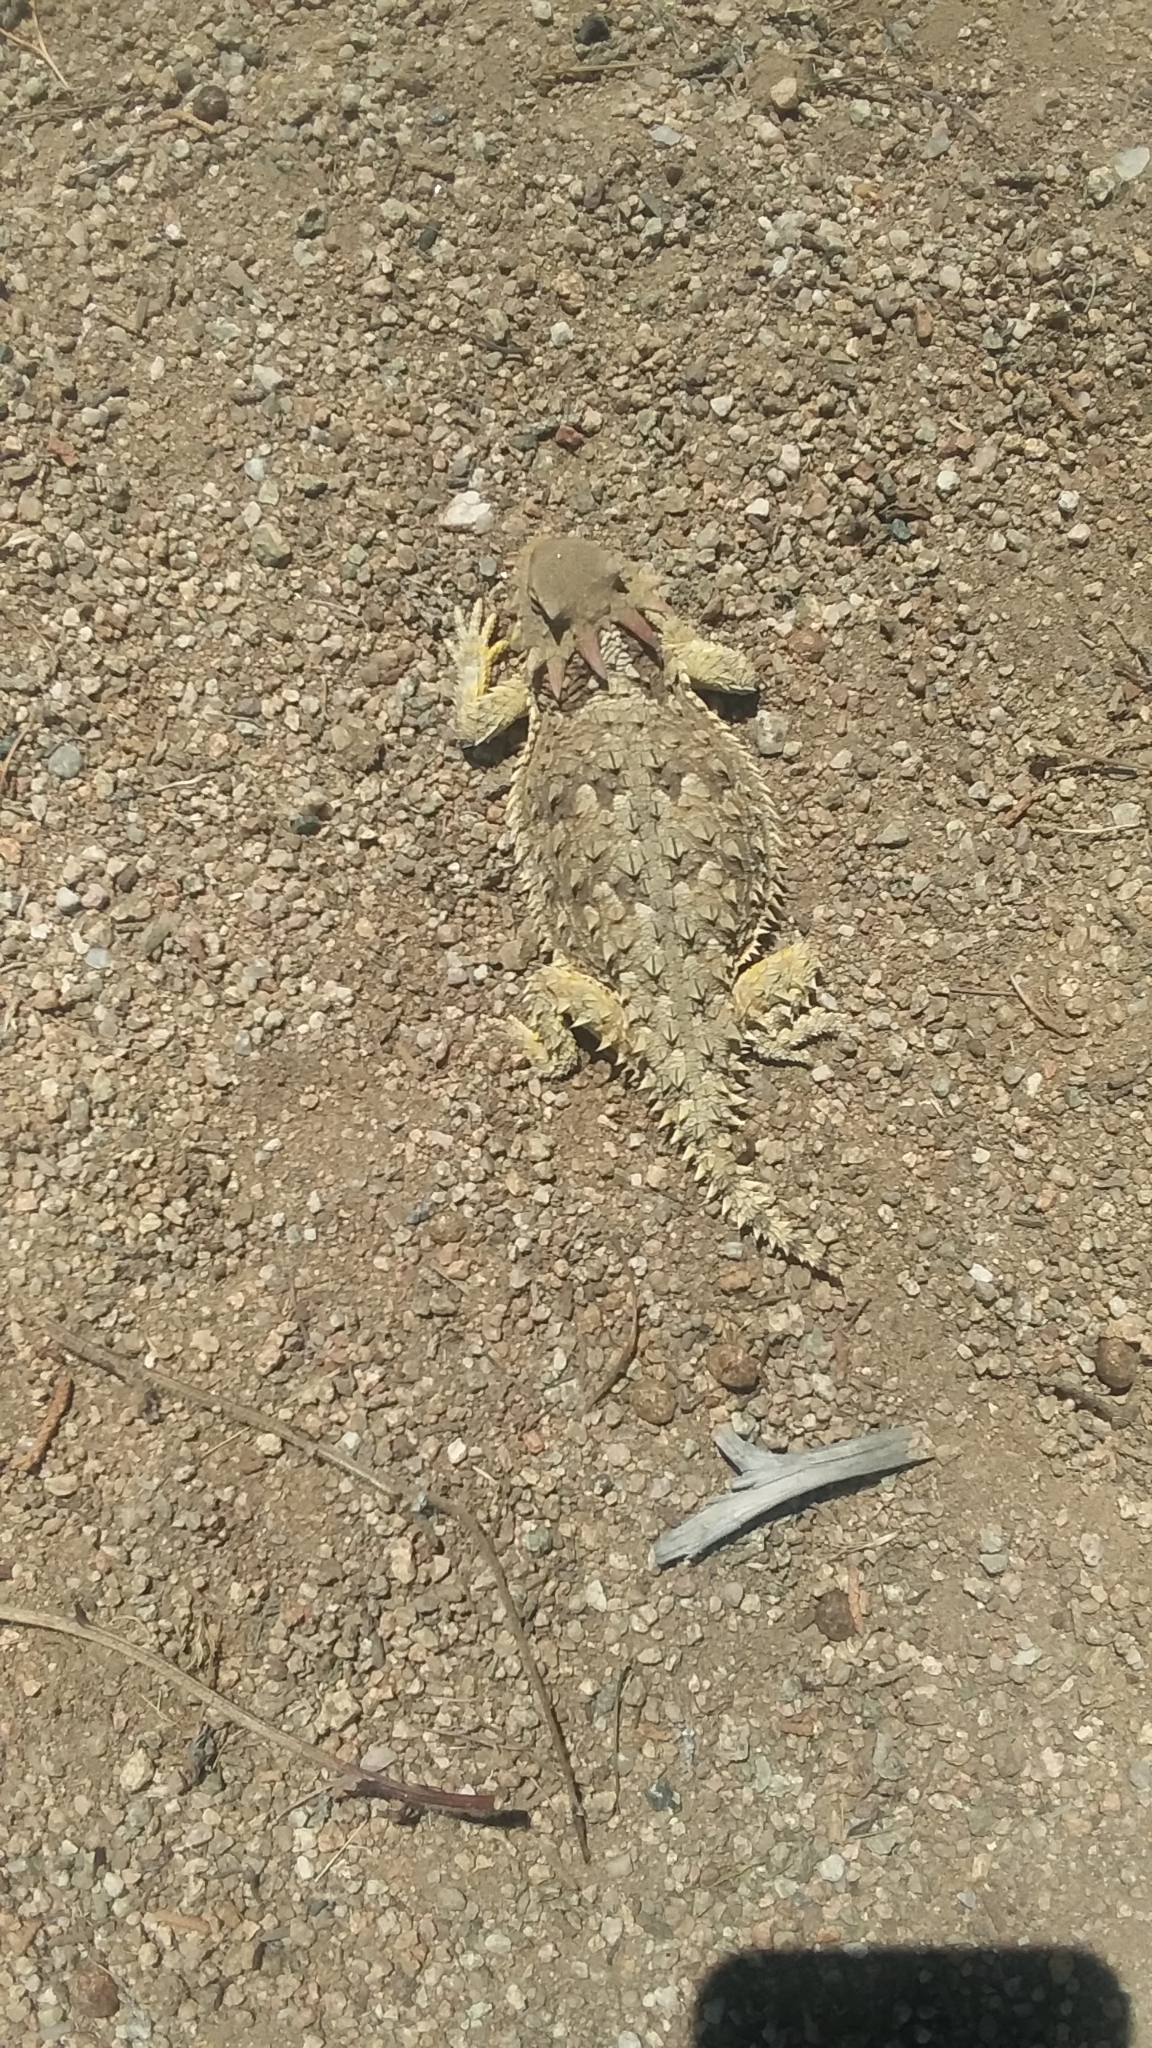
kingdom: Animalia
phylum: Chordata
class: Squamata
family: Phrynosomatidae
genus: Phrynosoma
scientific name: Phrynosoma blainvillii
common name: San diego horned lizard
